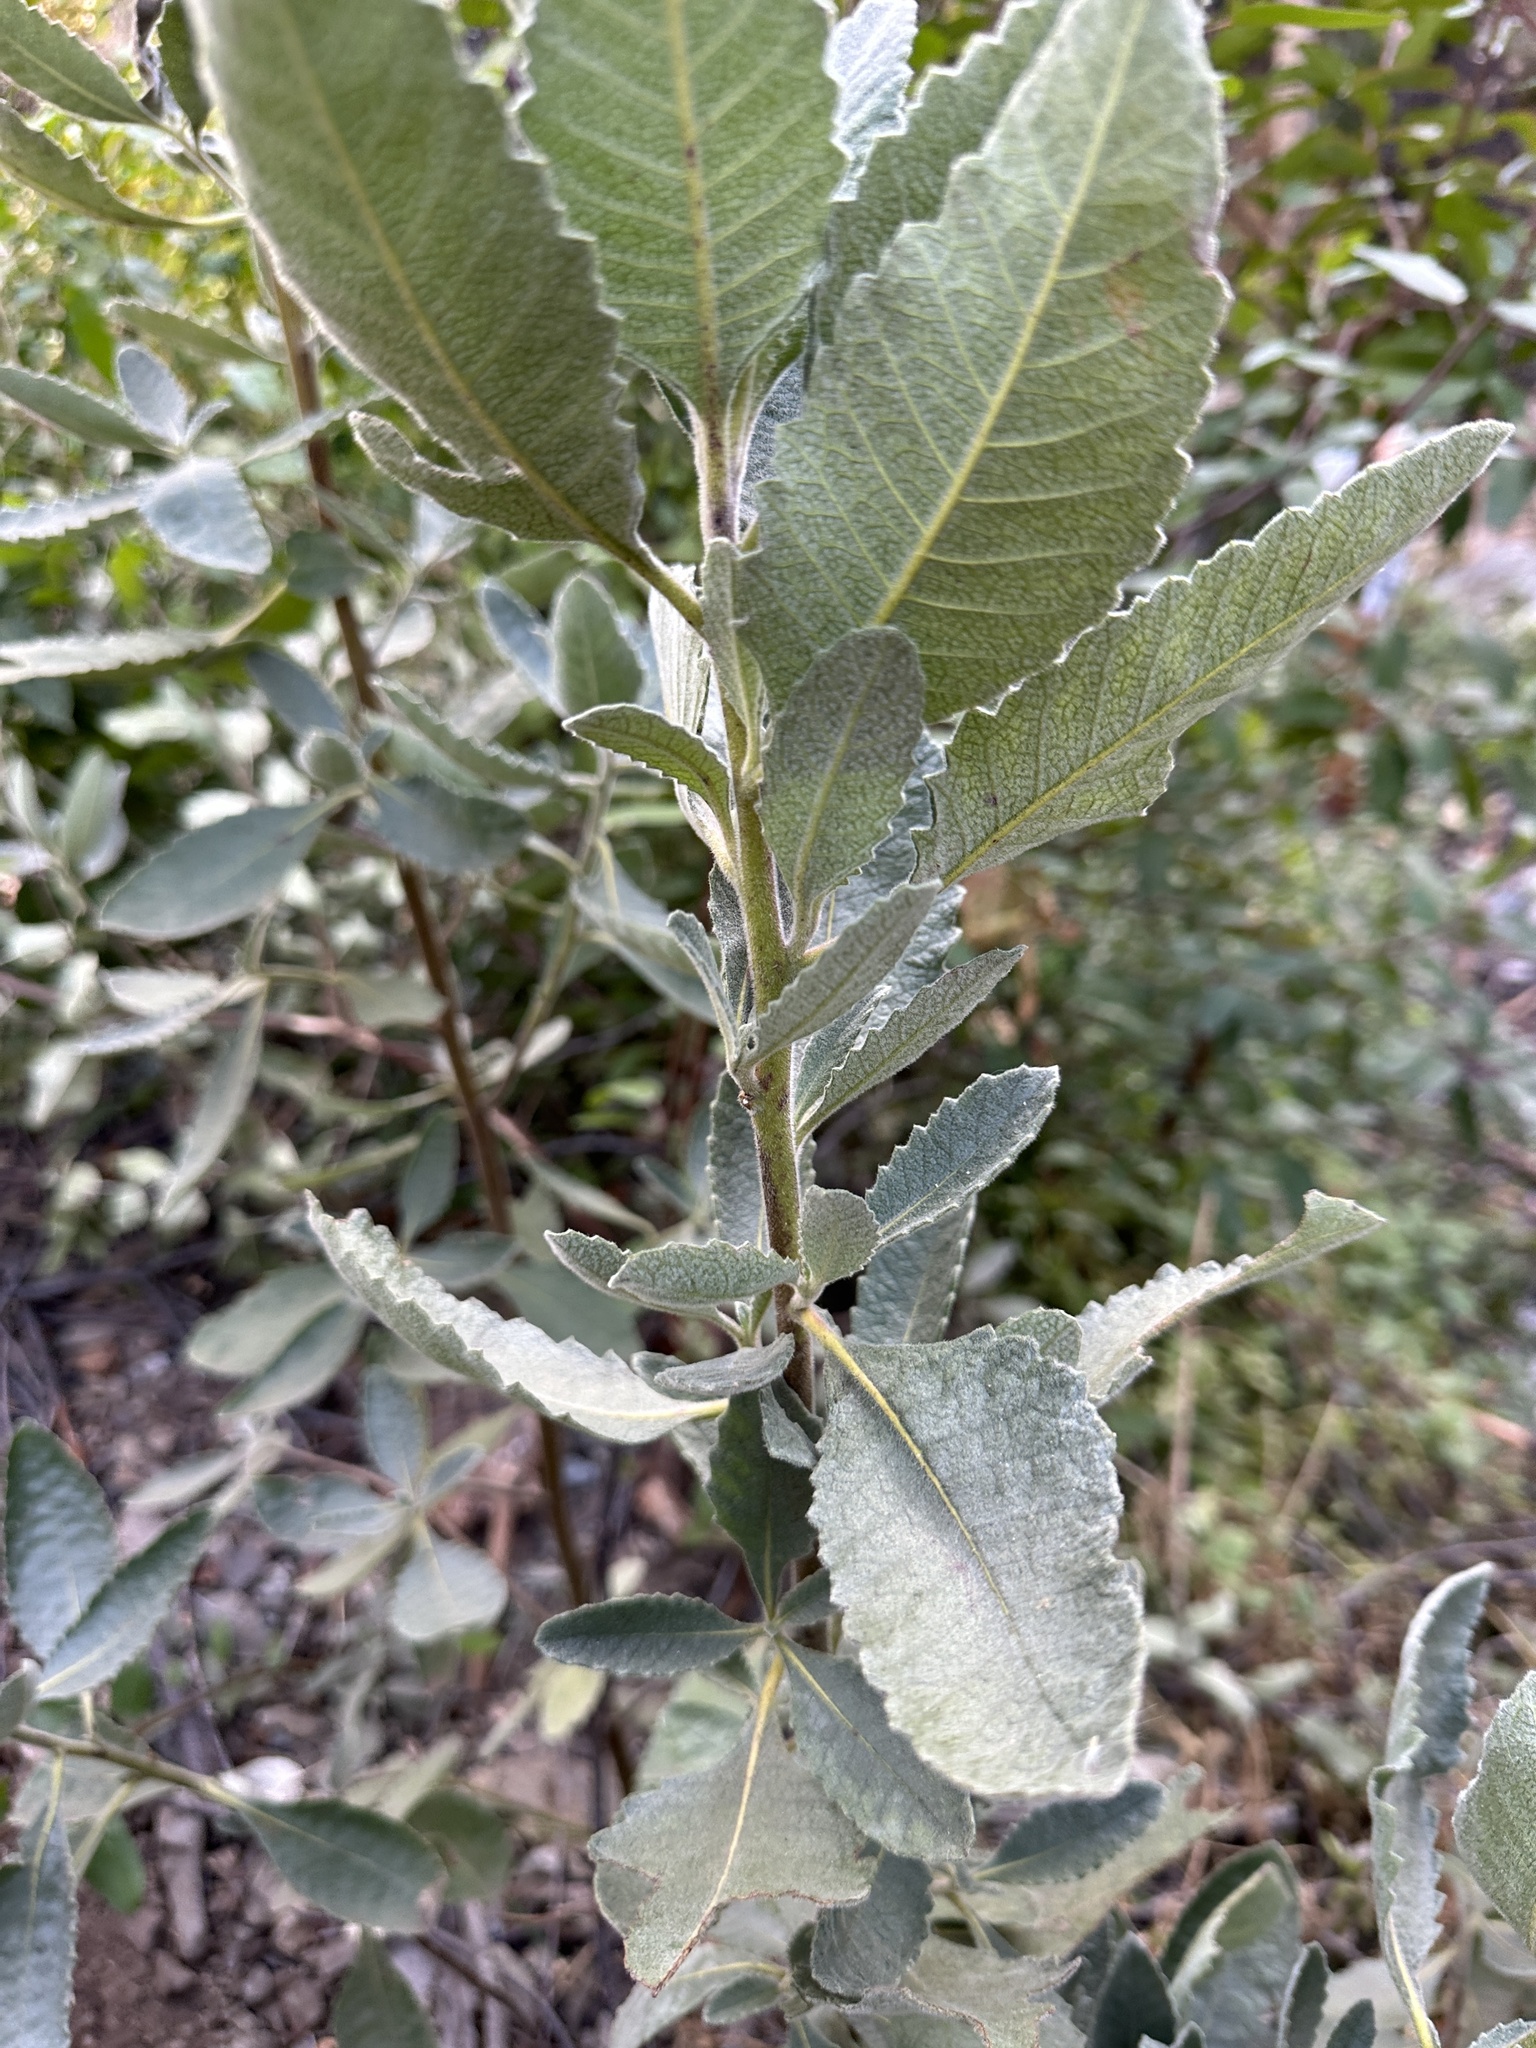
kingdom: Plantae
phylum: Tracheophyta
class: Magnoliopsida
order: Boraginales
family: Namaceae
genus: Eriodictyon
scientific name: Eriodictyon crassifolium
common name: Thick-leaf yerba-santa
